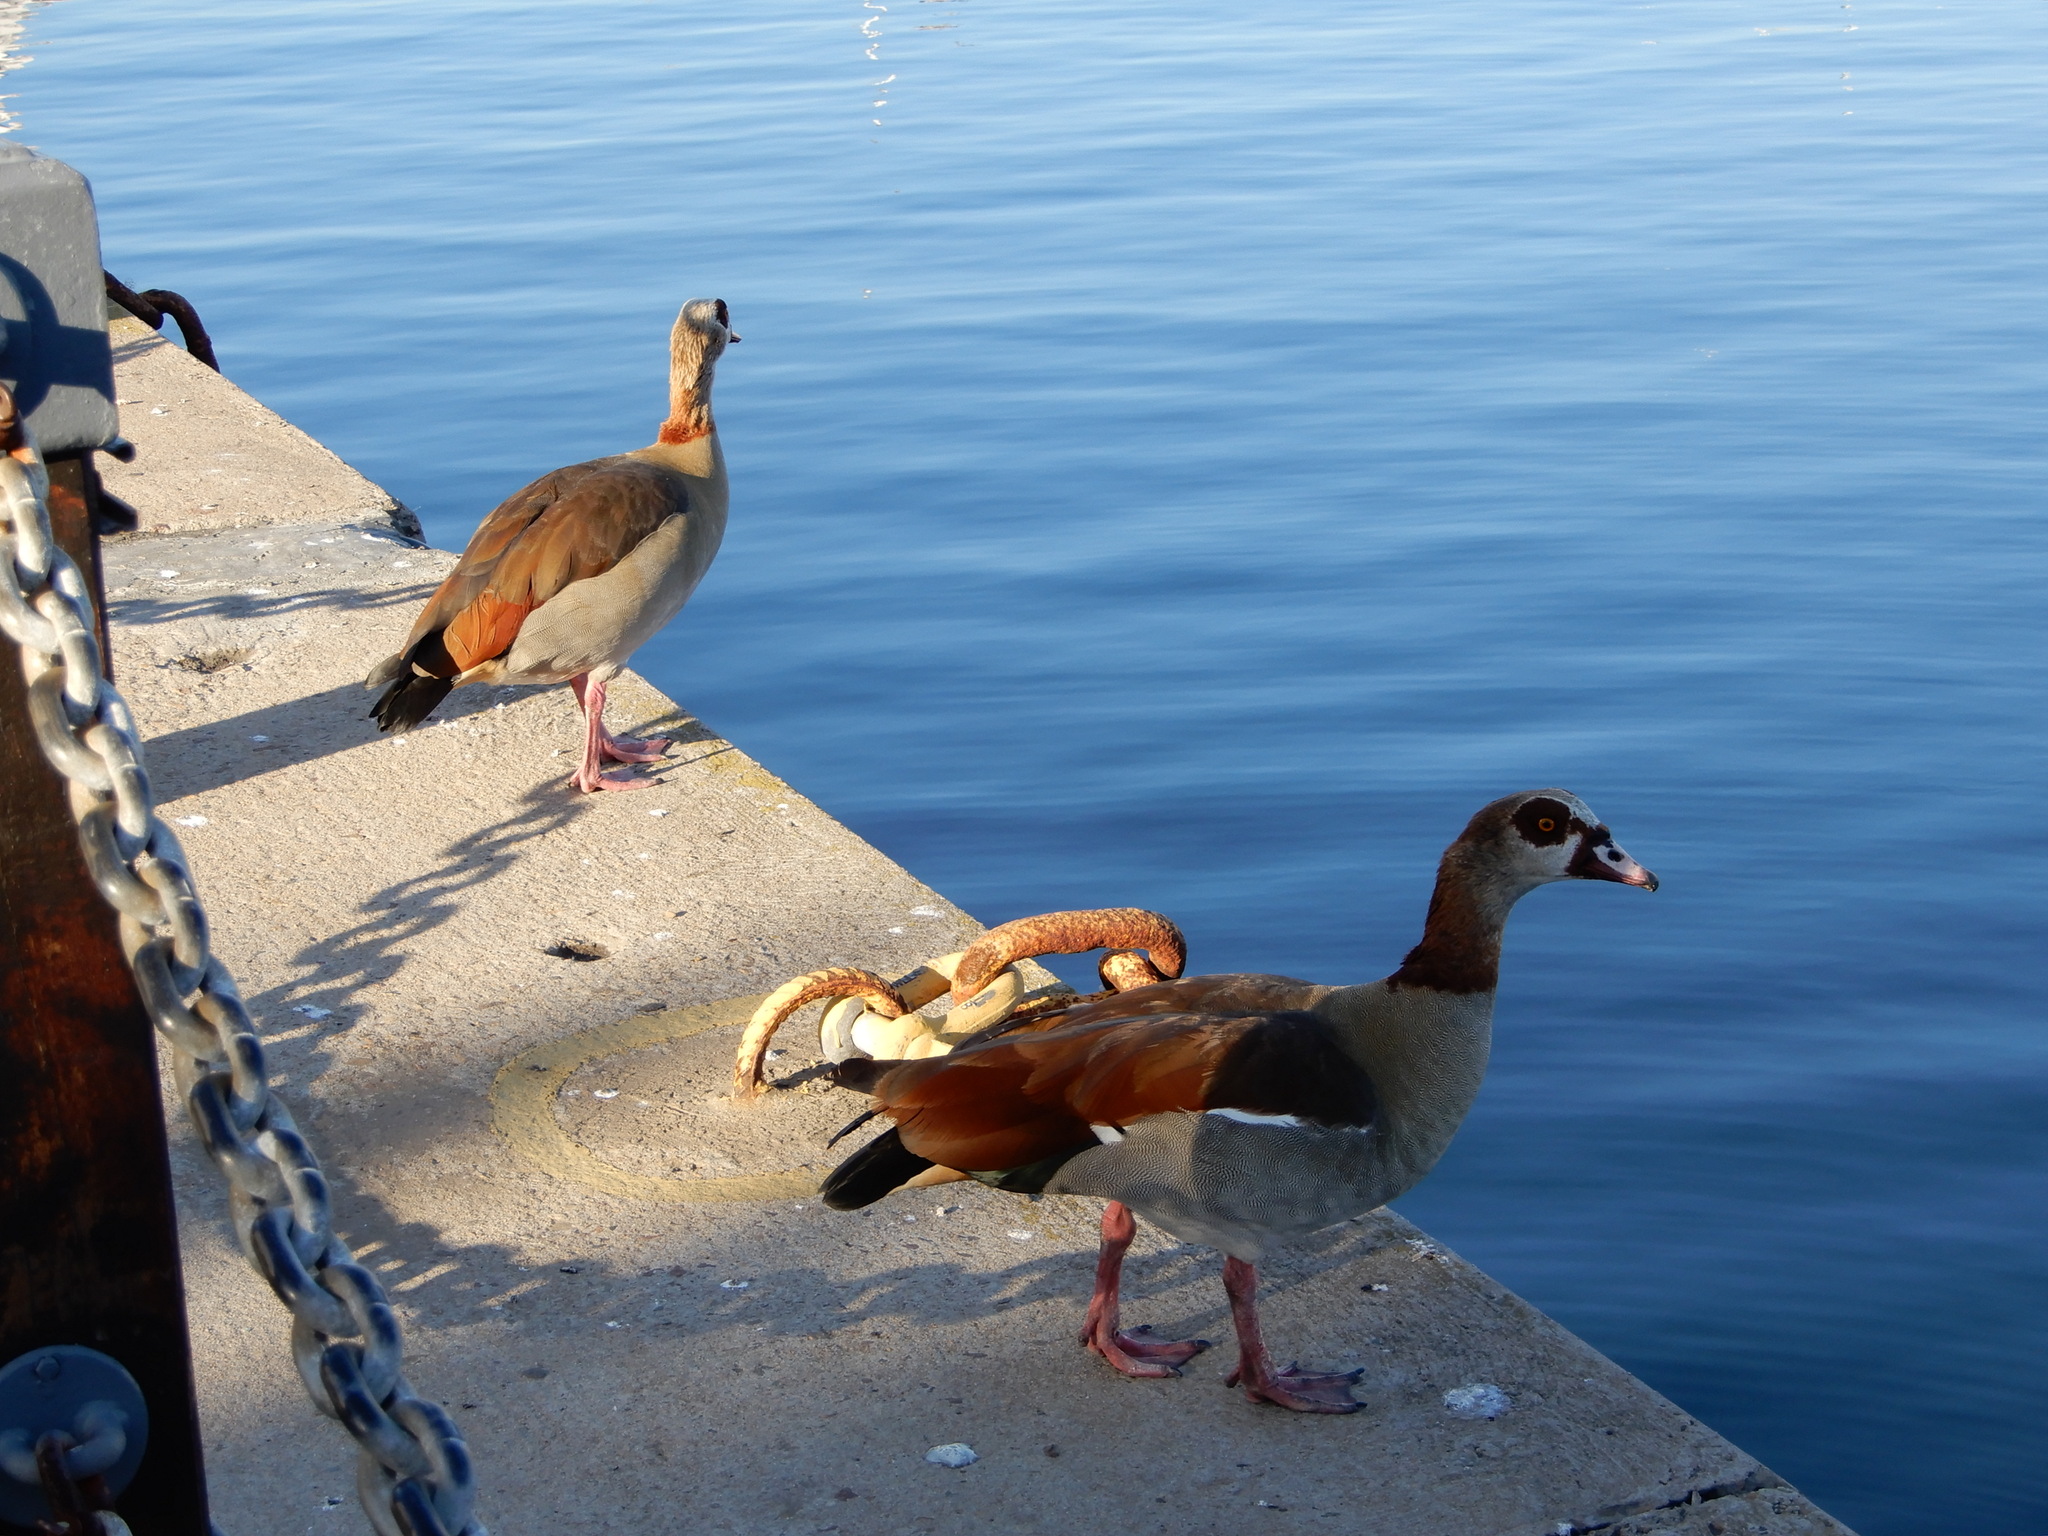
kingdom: Animalia
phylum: Chordata
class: Aves
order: Anseriformes
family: Anatidae
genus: Alopochen
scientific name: Alopochen aegyptiaca
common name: Egyptian goose
